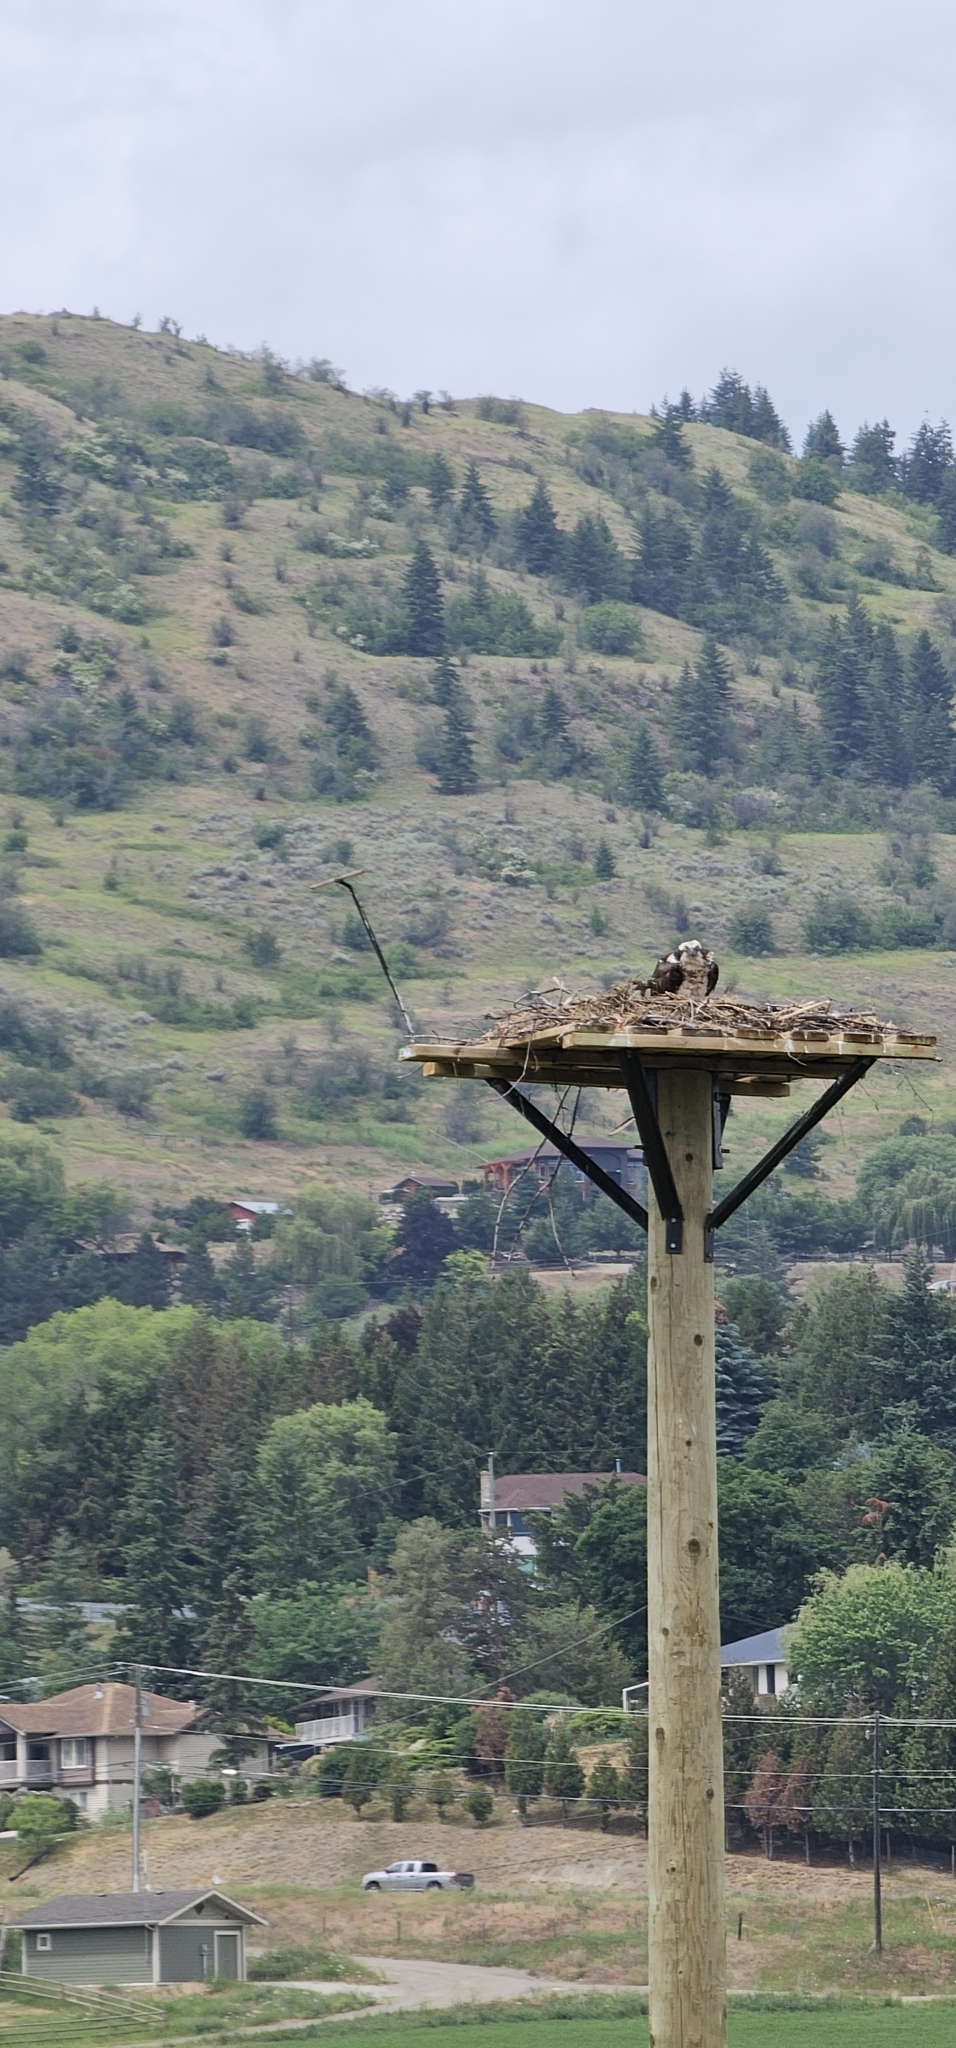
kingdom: Animalia
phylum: Chordata
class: Aves
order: Accipitriformes
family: Pandionidae
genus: Pandion
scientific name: Pandion haliaetus
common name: Osprey
